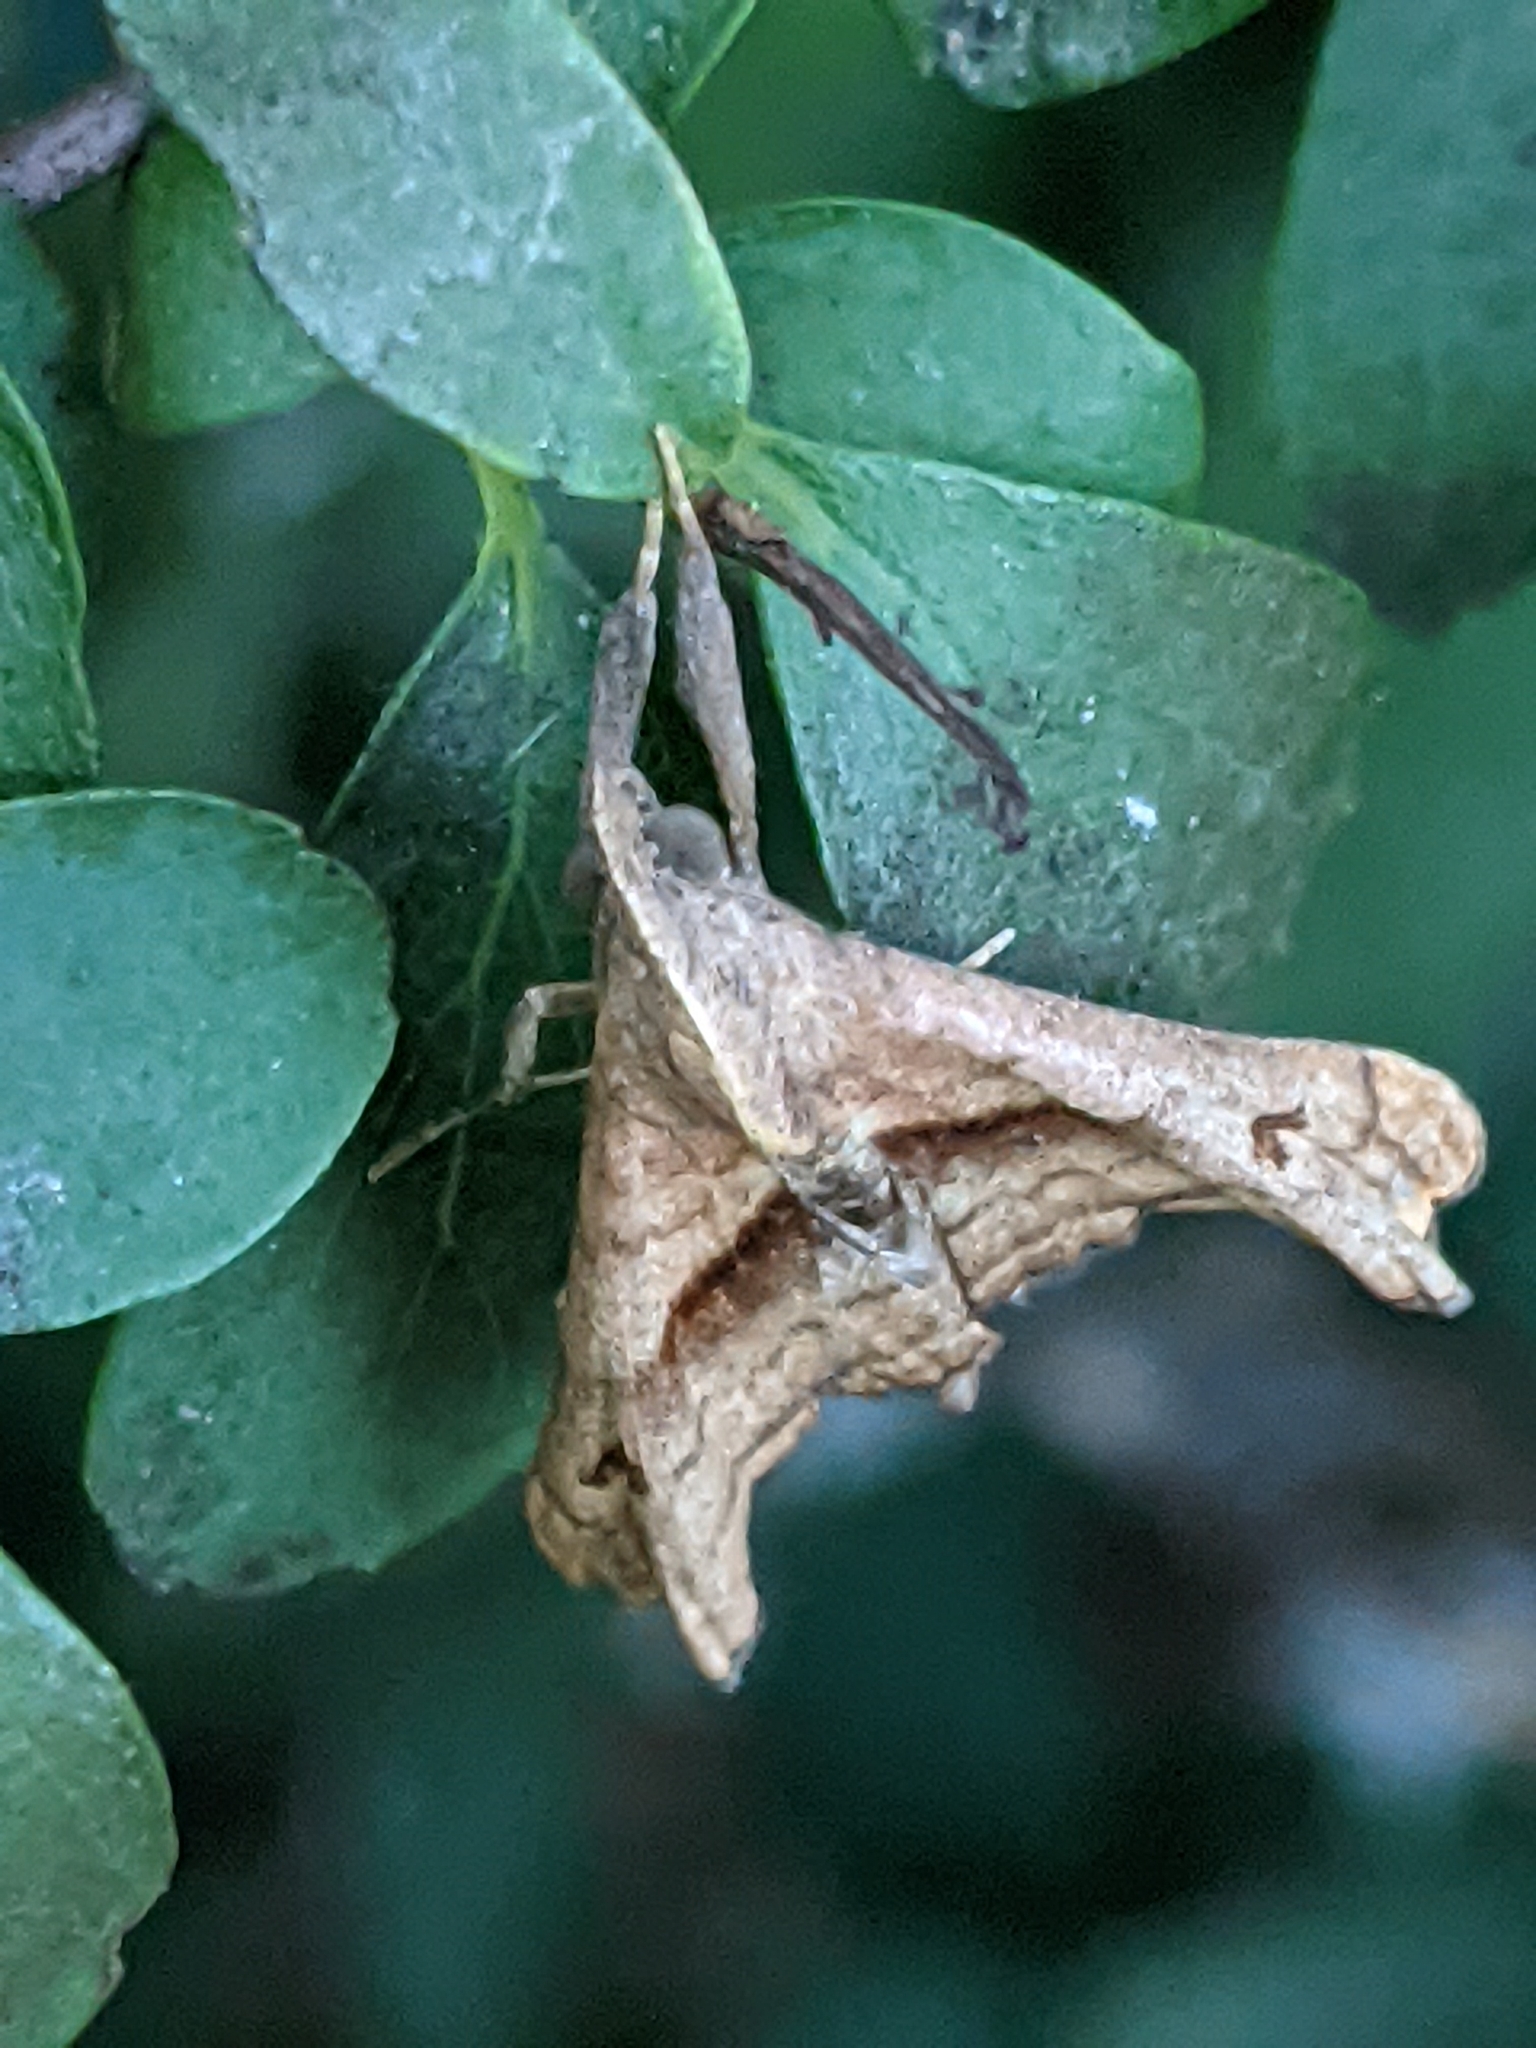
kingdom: Animalia
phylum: Arthropoda
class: Insecta
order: Lepidoptera
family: Erebidae
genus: Palthis
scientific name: Palthis angulalis
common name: Dark-spotted palthis moth
